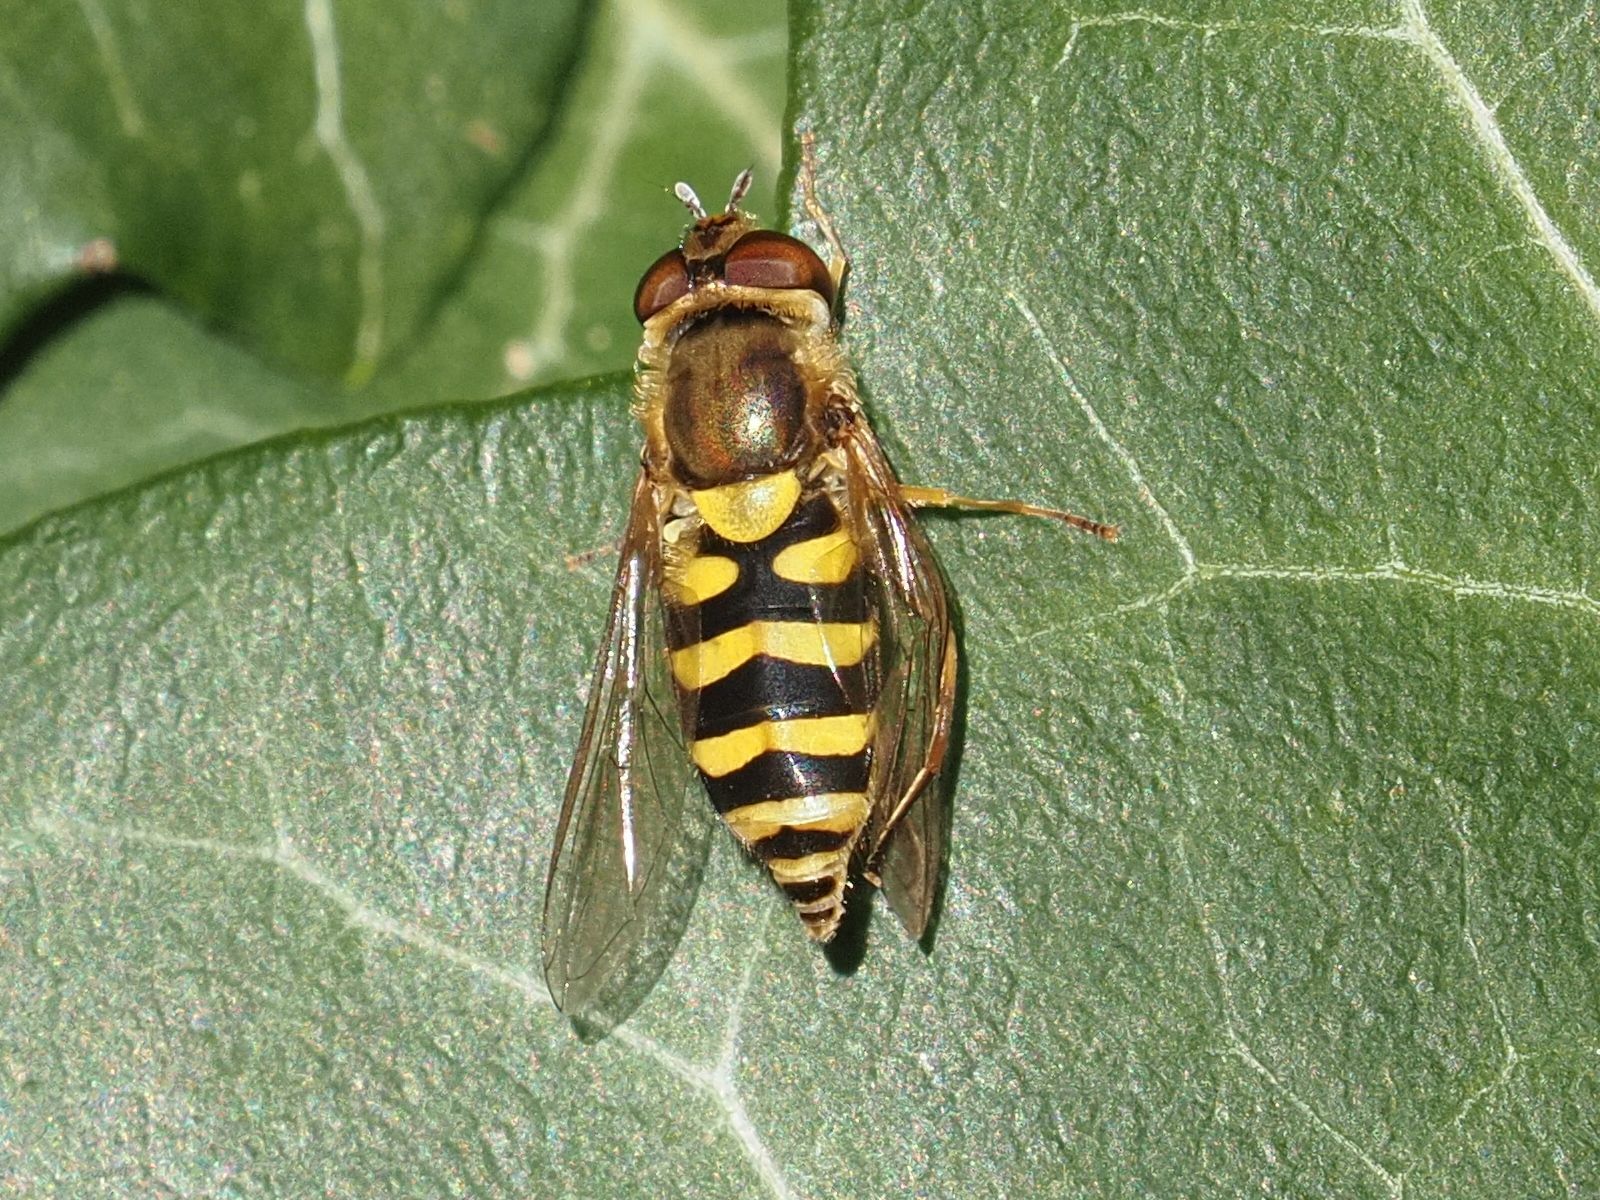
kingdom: Animalia
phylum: Arthropoda
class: Insecta
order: Diptera
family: Syrphidae
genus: Syrphus
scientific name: Syrphus
